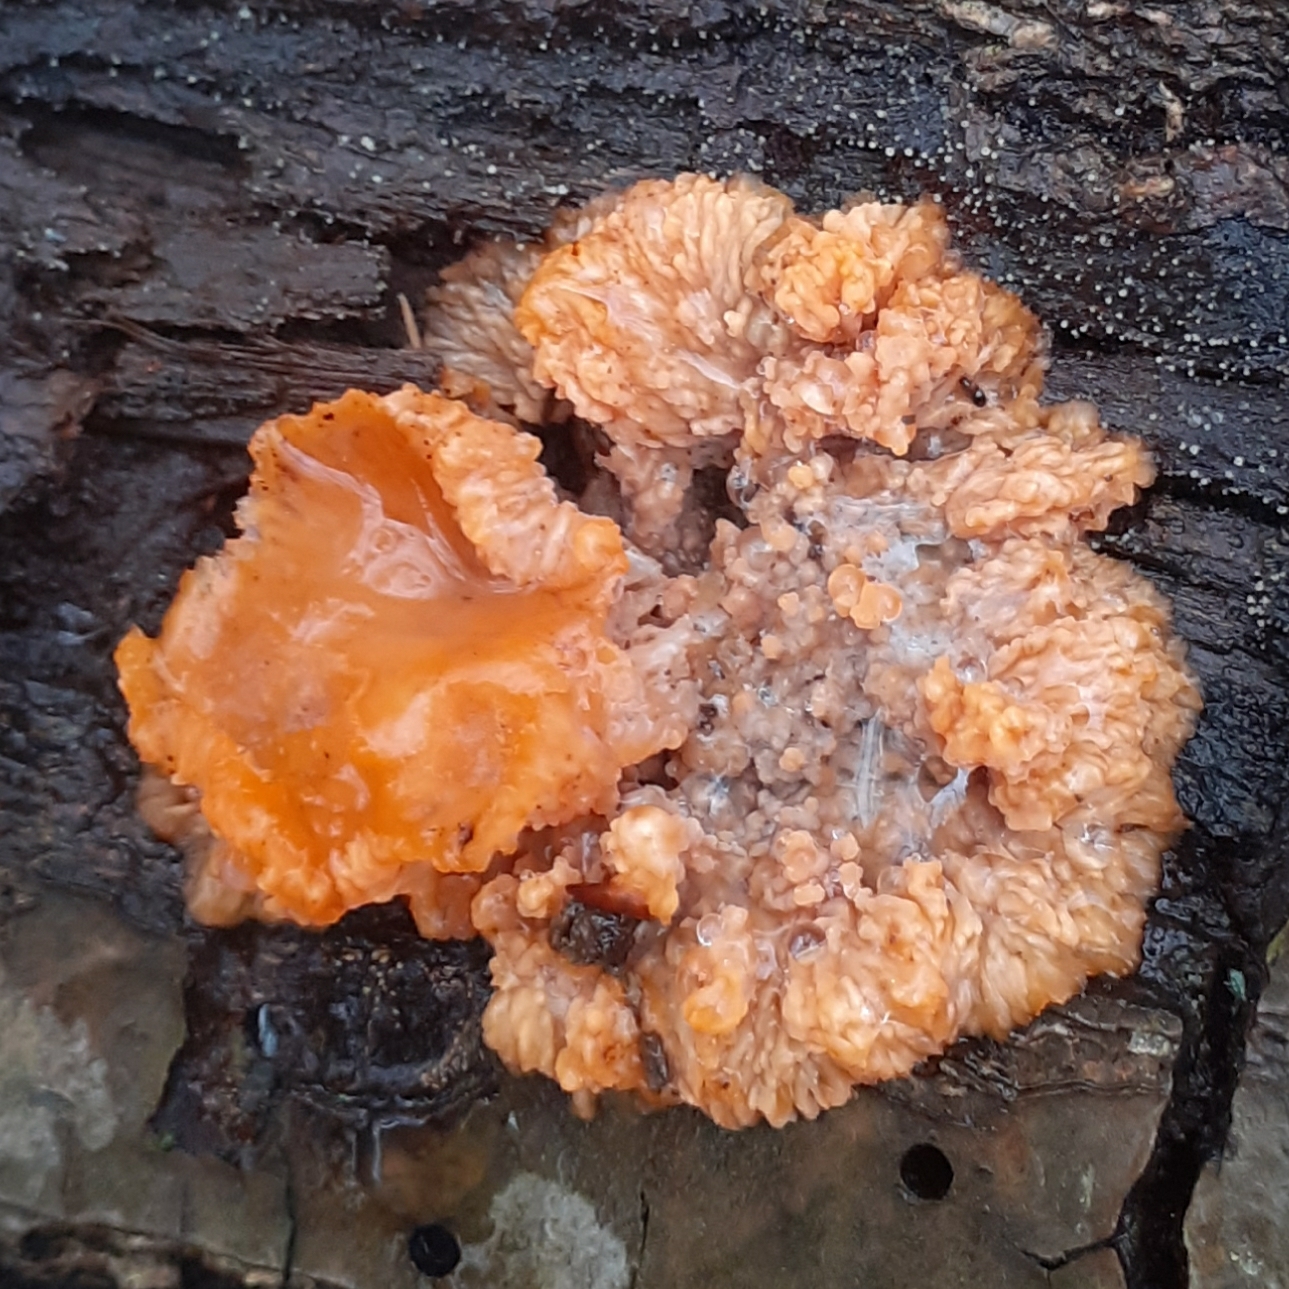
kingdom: Fungi
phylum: Basidiomycota
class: Agaricomycetes
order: Polyporales
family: Meruliaceae
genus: Phlebia
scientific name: Phlebia radiata
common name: Wrinkled crust
